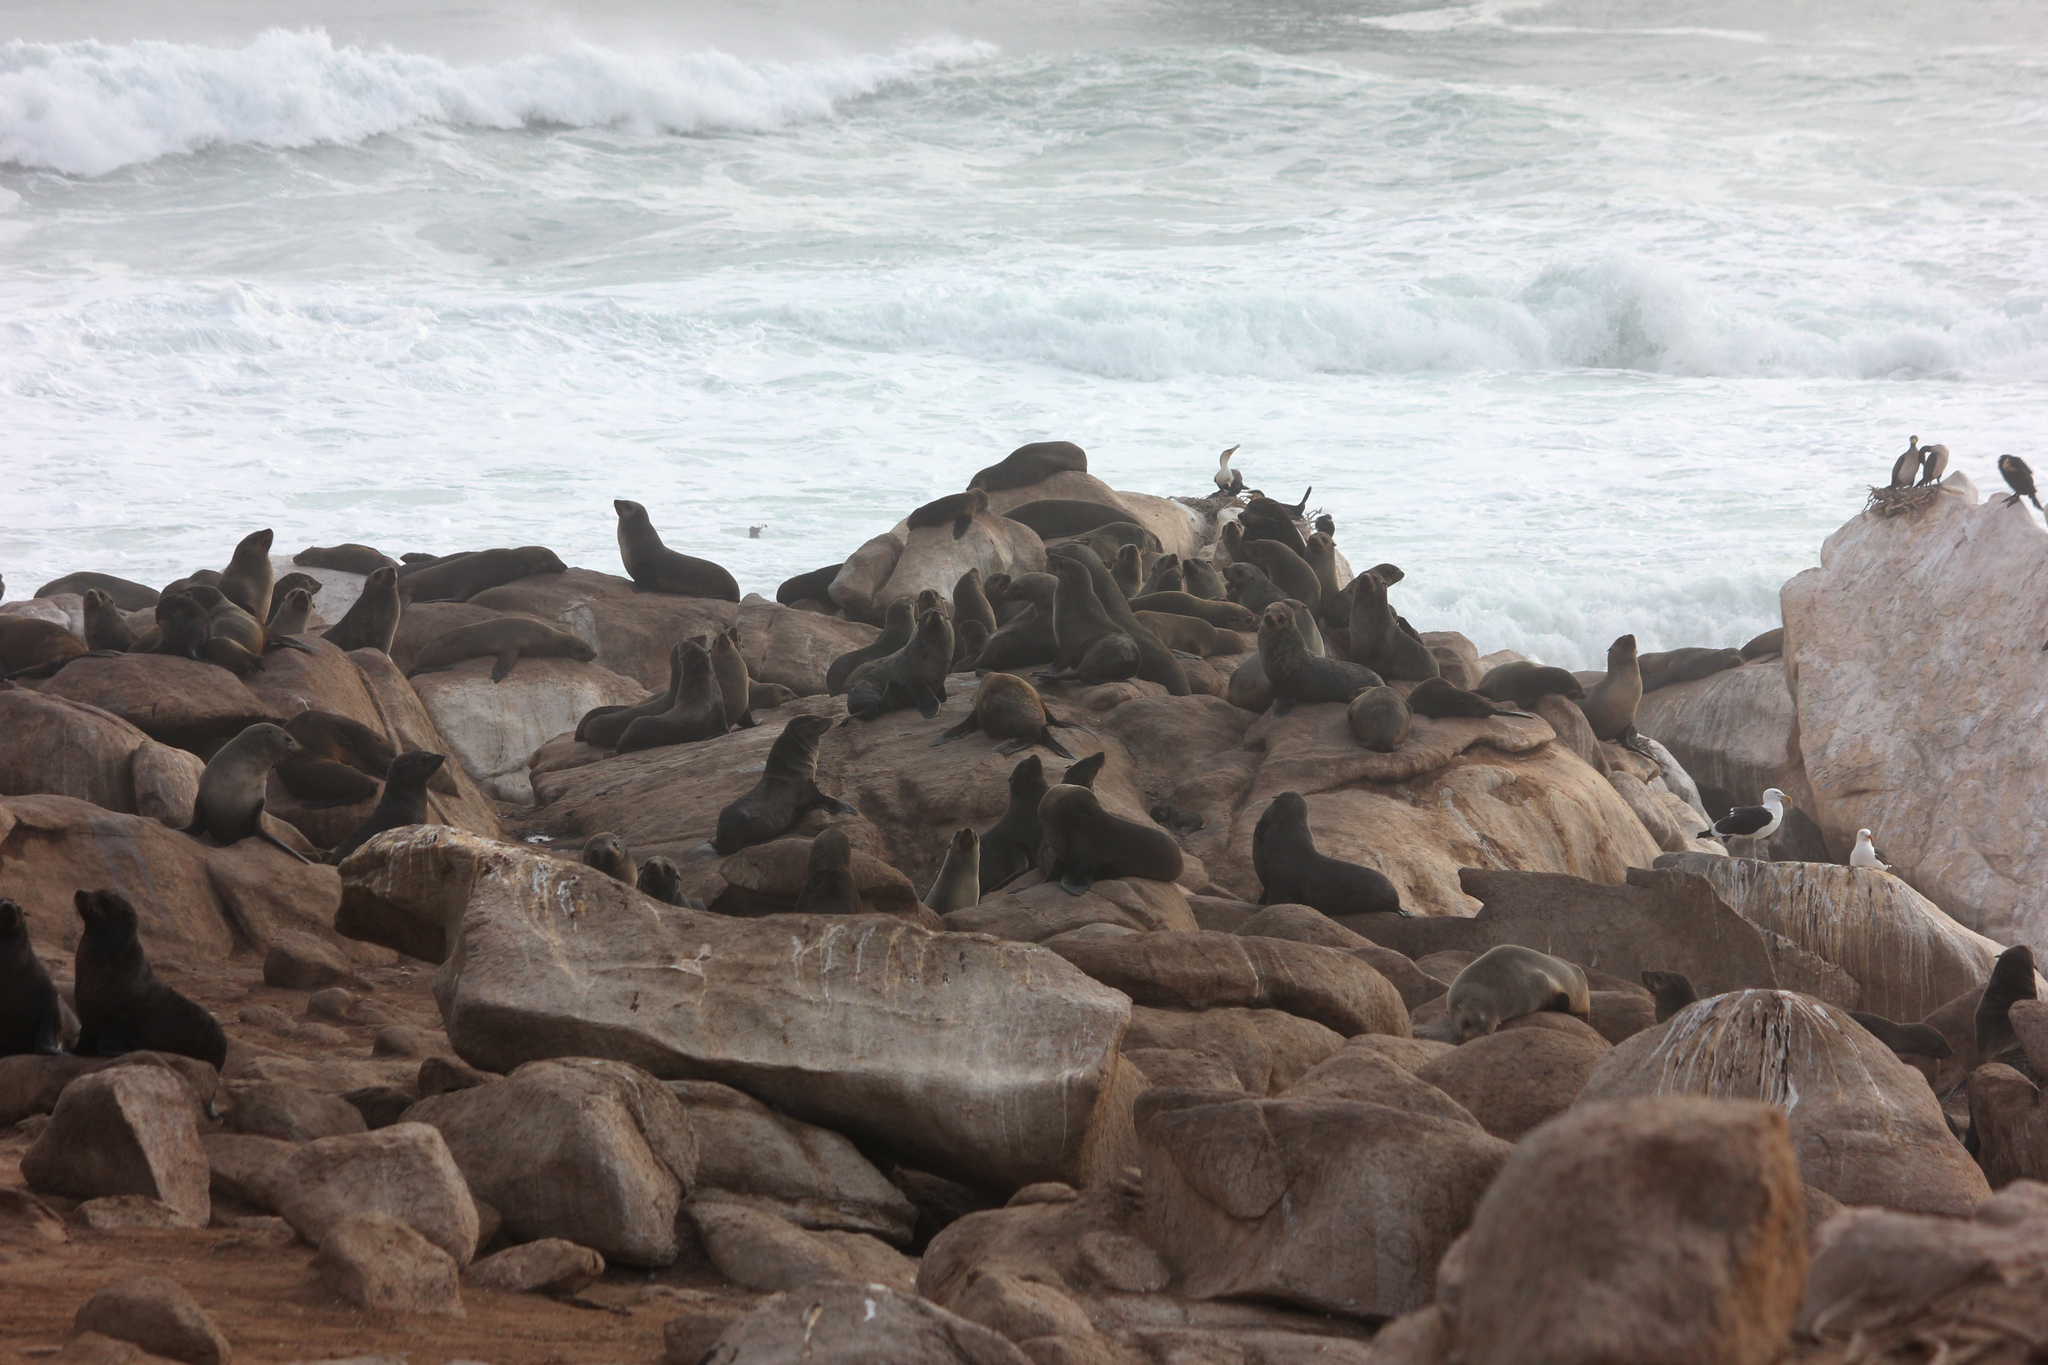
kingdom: Animalia
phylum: Chordata
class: Mammalia
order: Carnivora
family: Otariidae
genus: Arctocephalus
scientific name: Arctocephalus pusillus
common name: Brown fur seal
